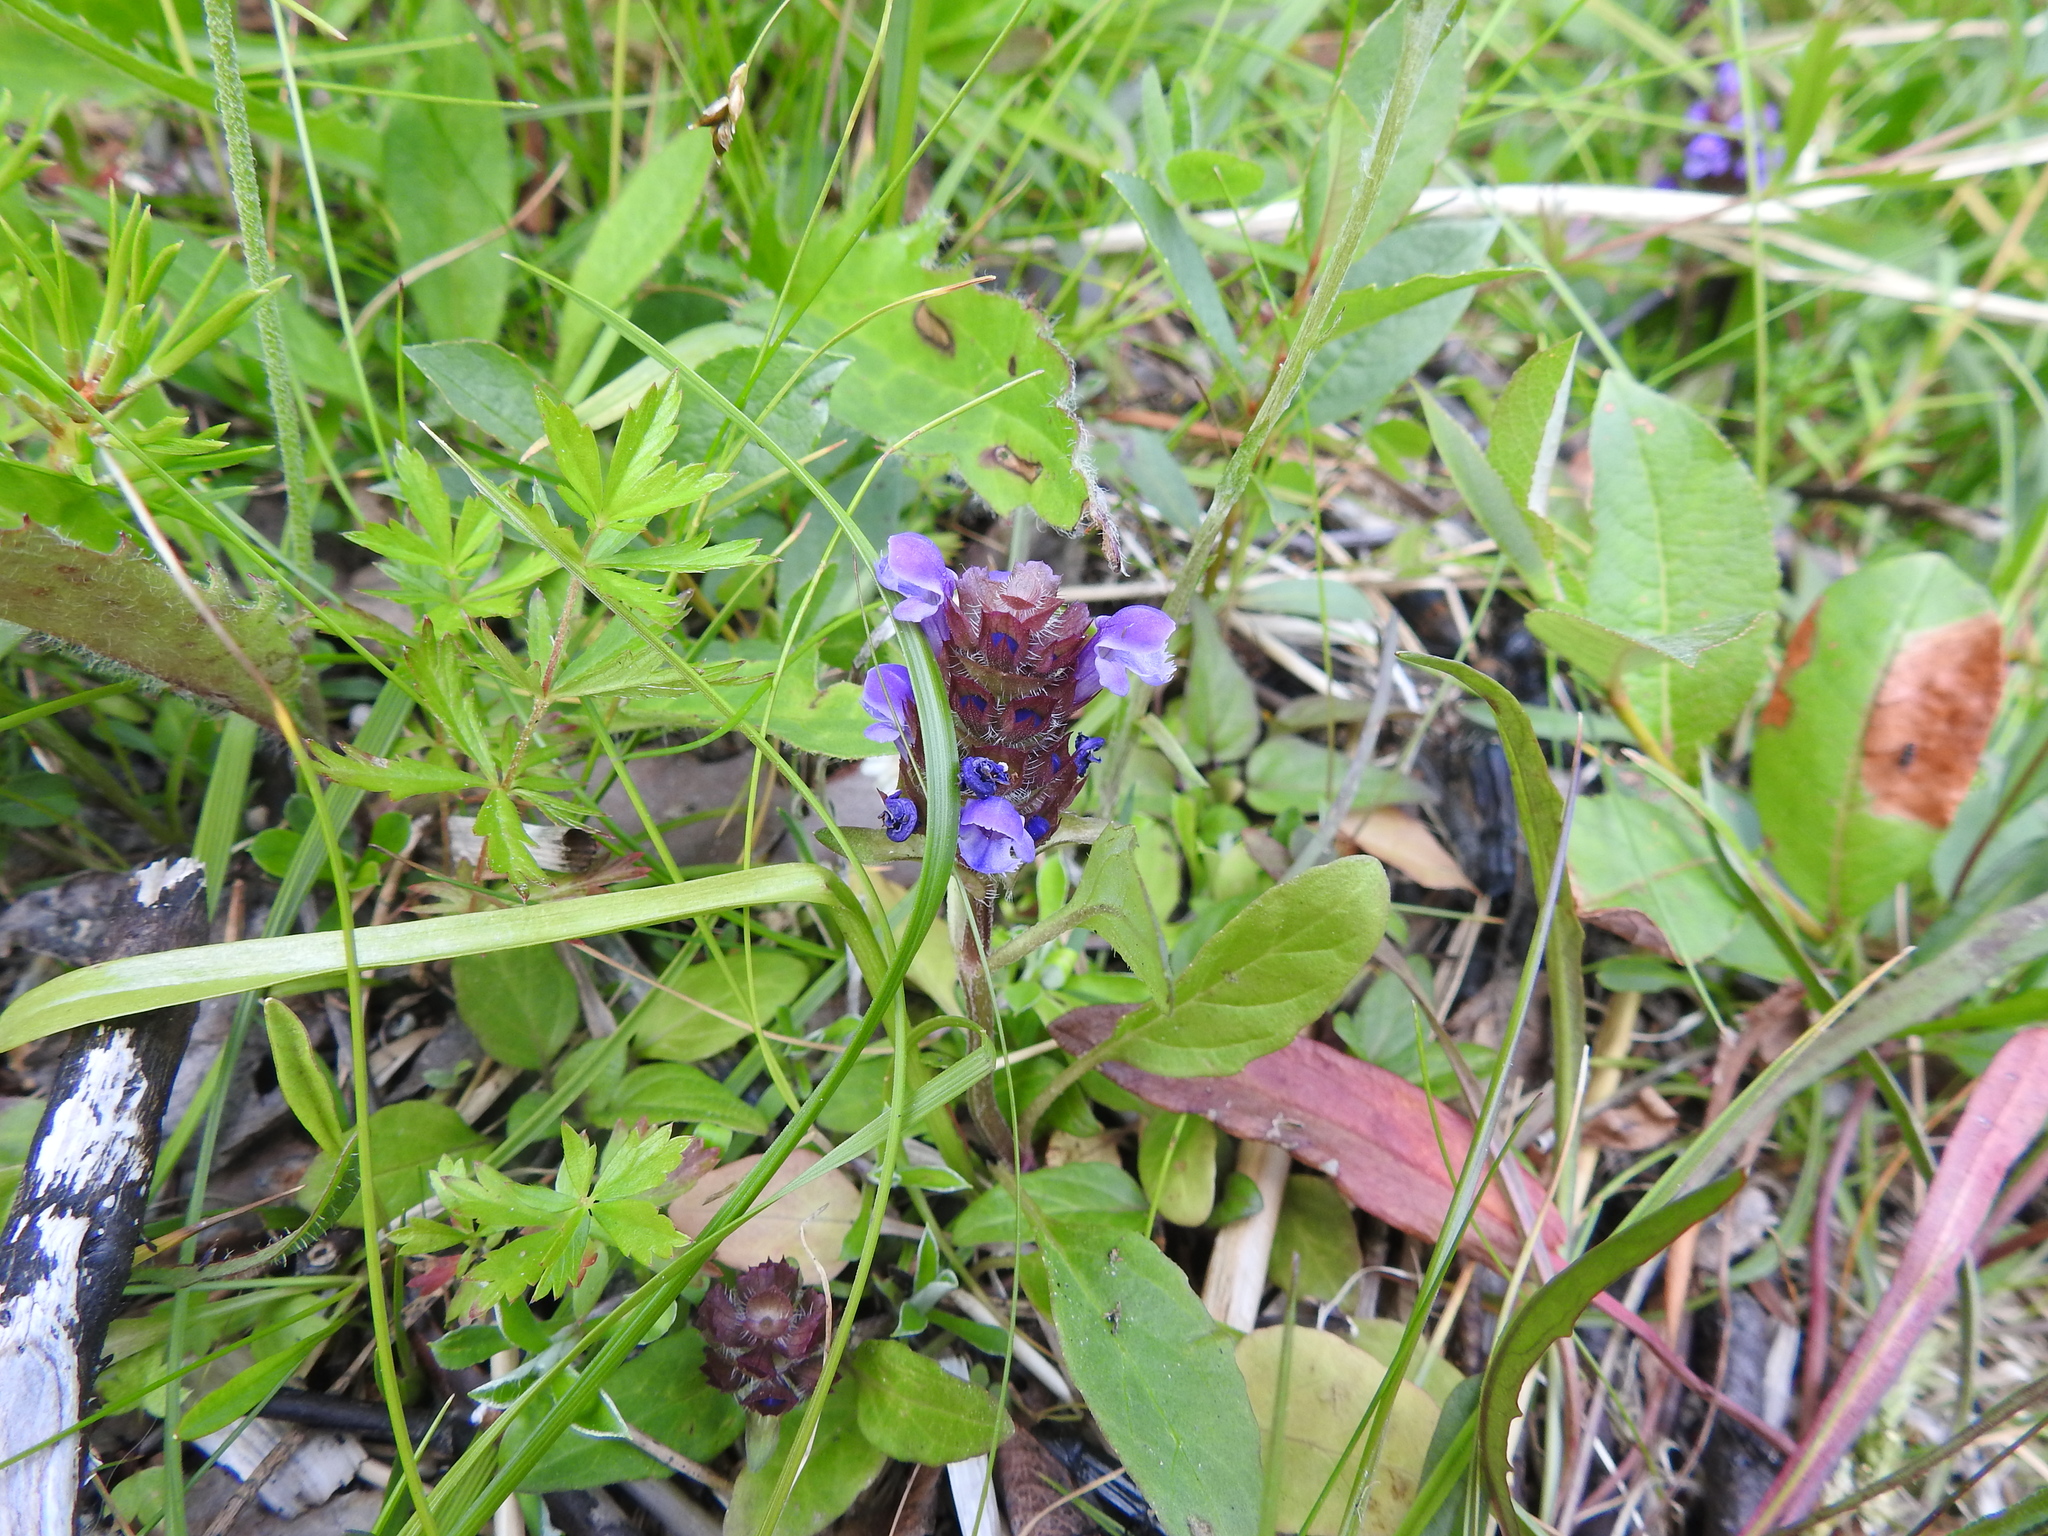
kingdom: Plantae
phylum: Tracheophyta
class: Magnoliopsida
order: Lamiales
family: Lamiaceae
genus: Prunella
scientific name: Prunella vulgaris
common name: Heal-all
